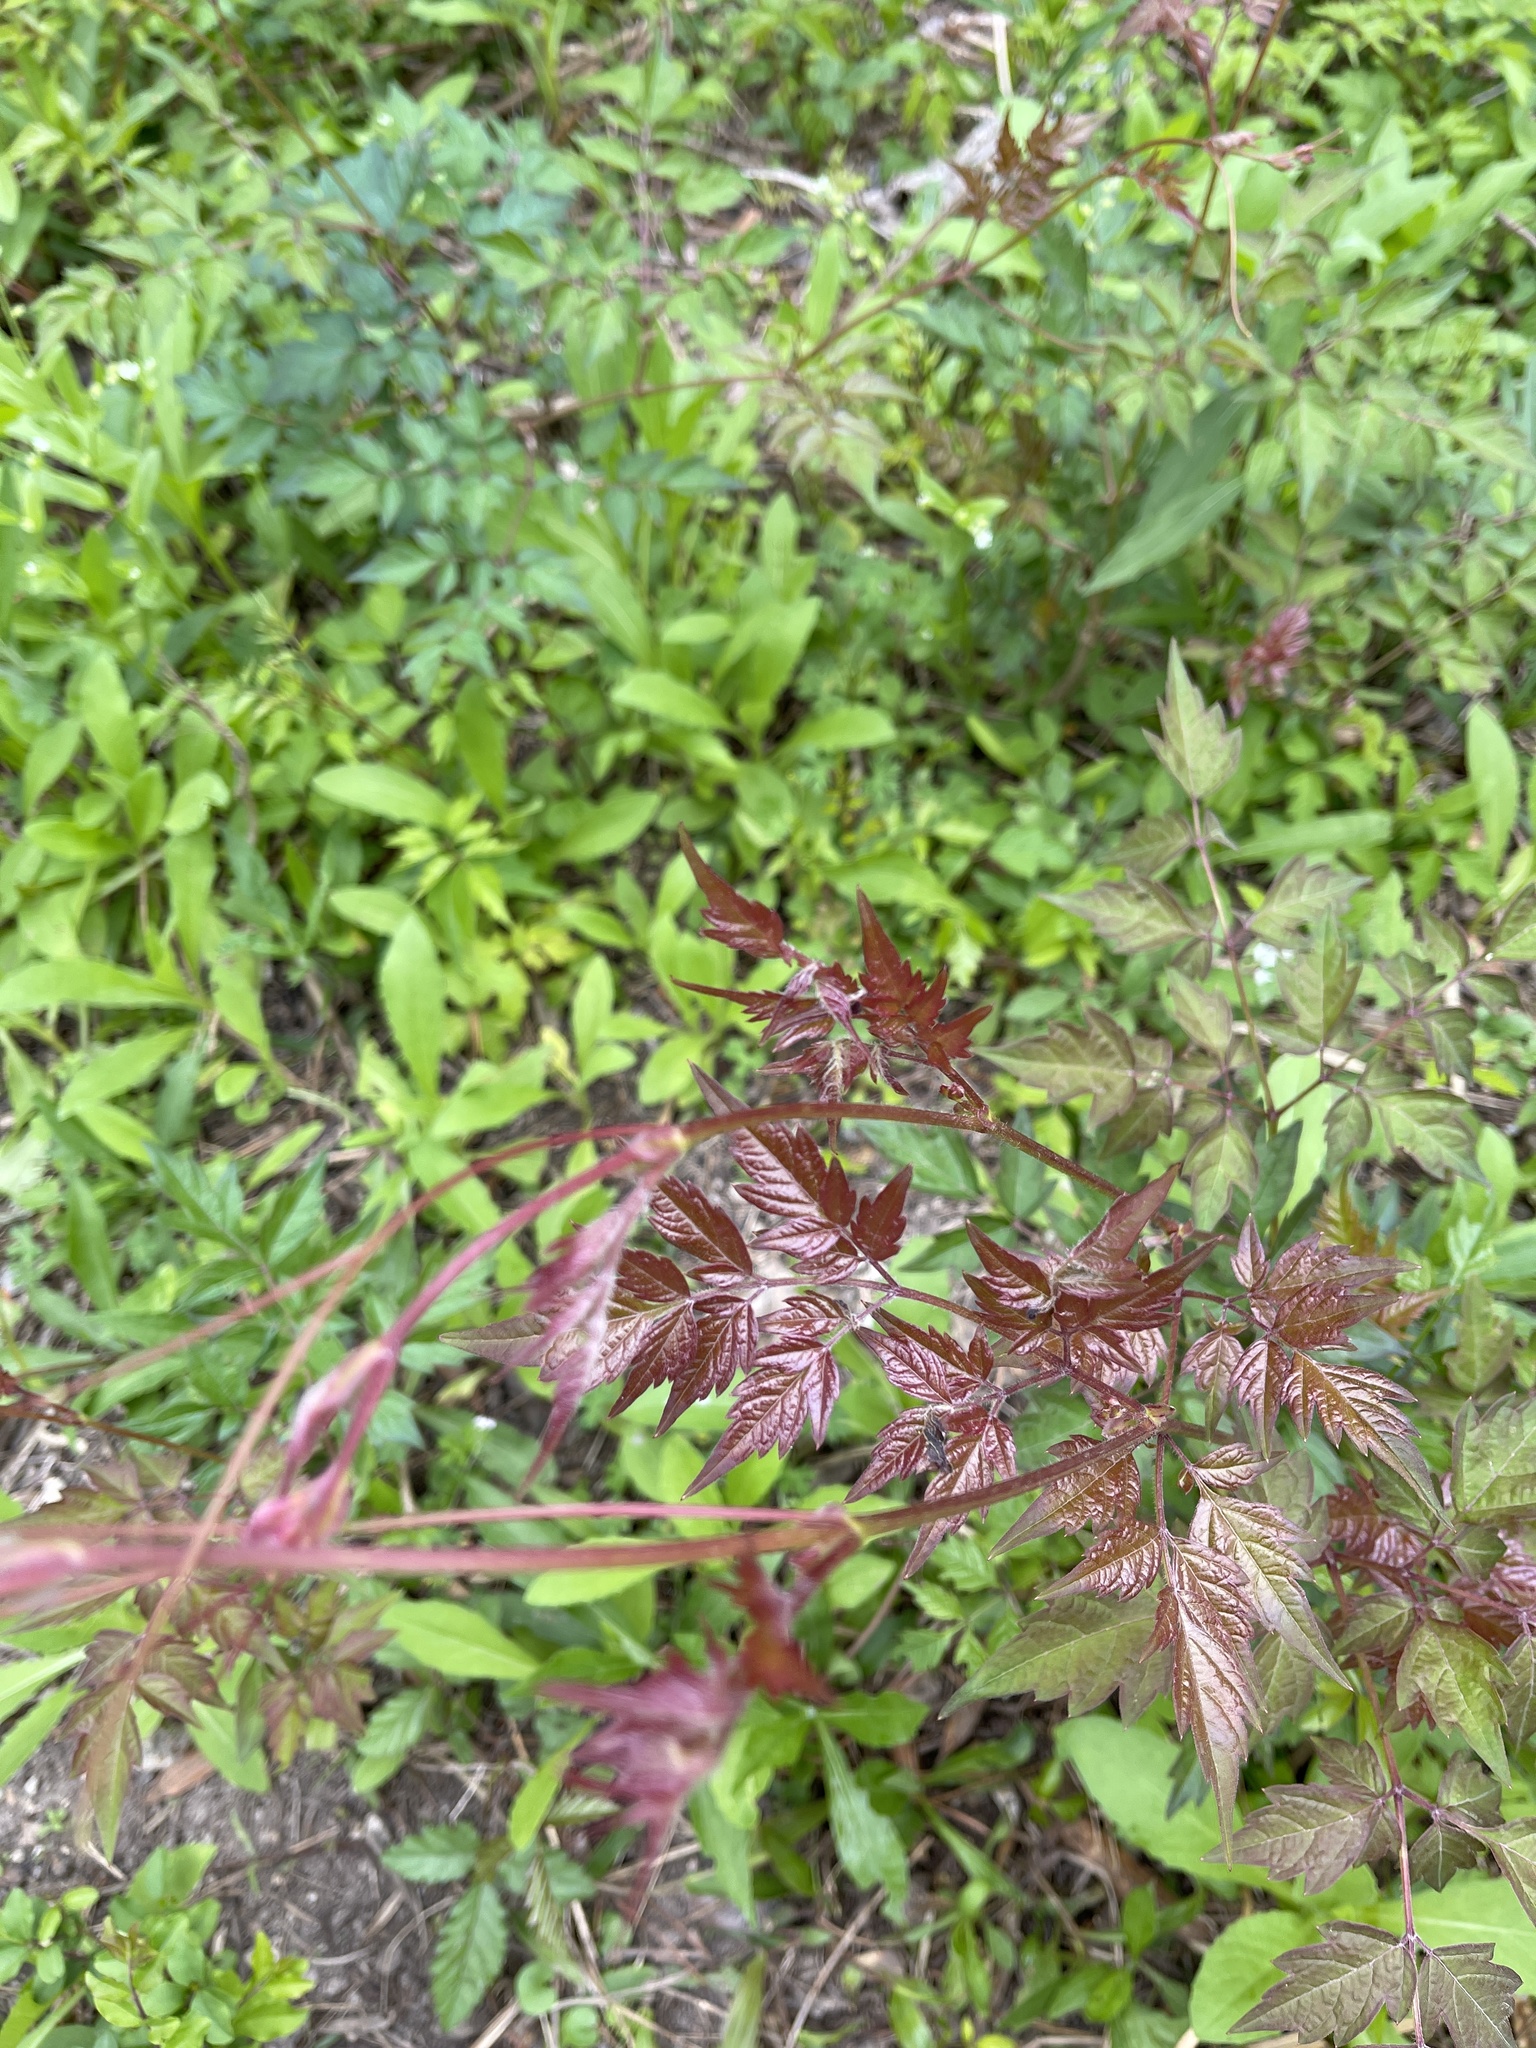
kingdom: Plantae
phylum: Tracheophyta
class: Magnoliopsida
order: Vitales
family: Vitaceae
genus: Nekemias
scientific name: Nekemias arborea
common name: Peppervine
